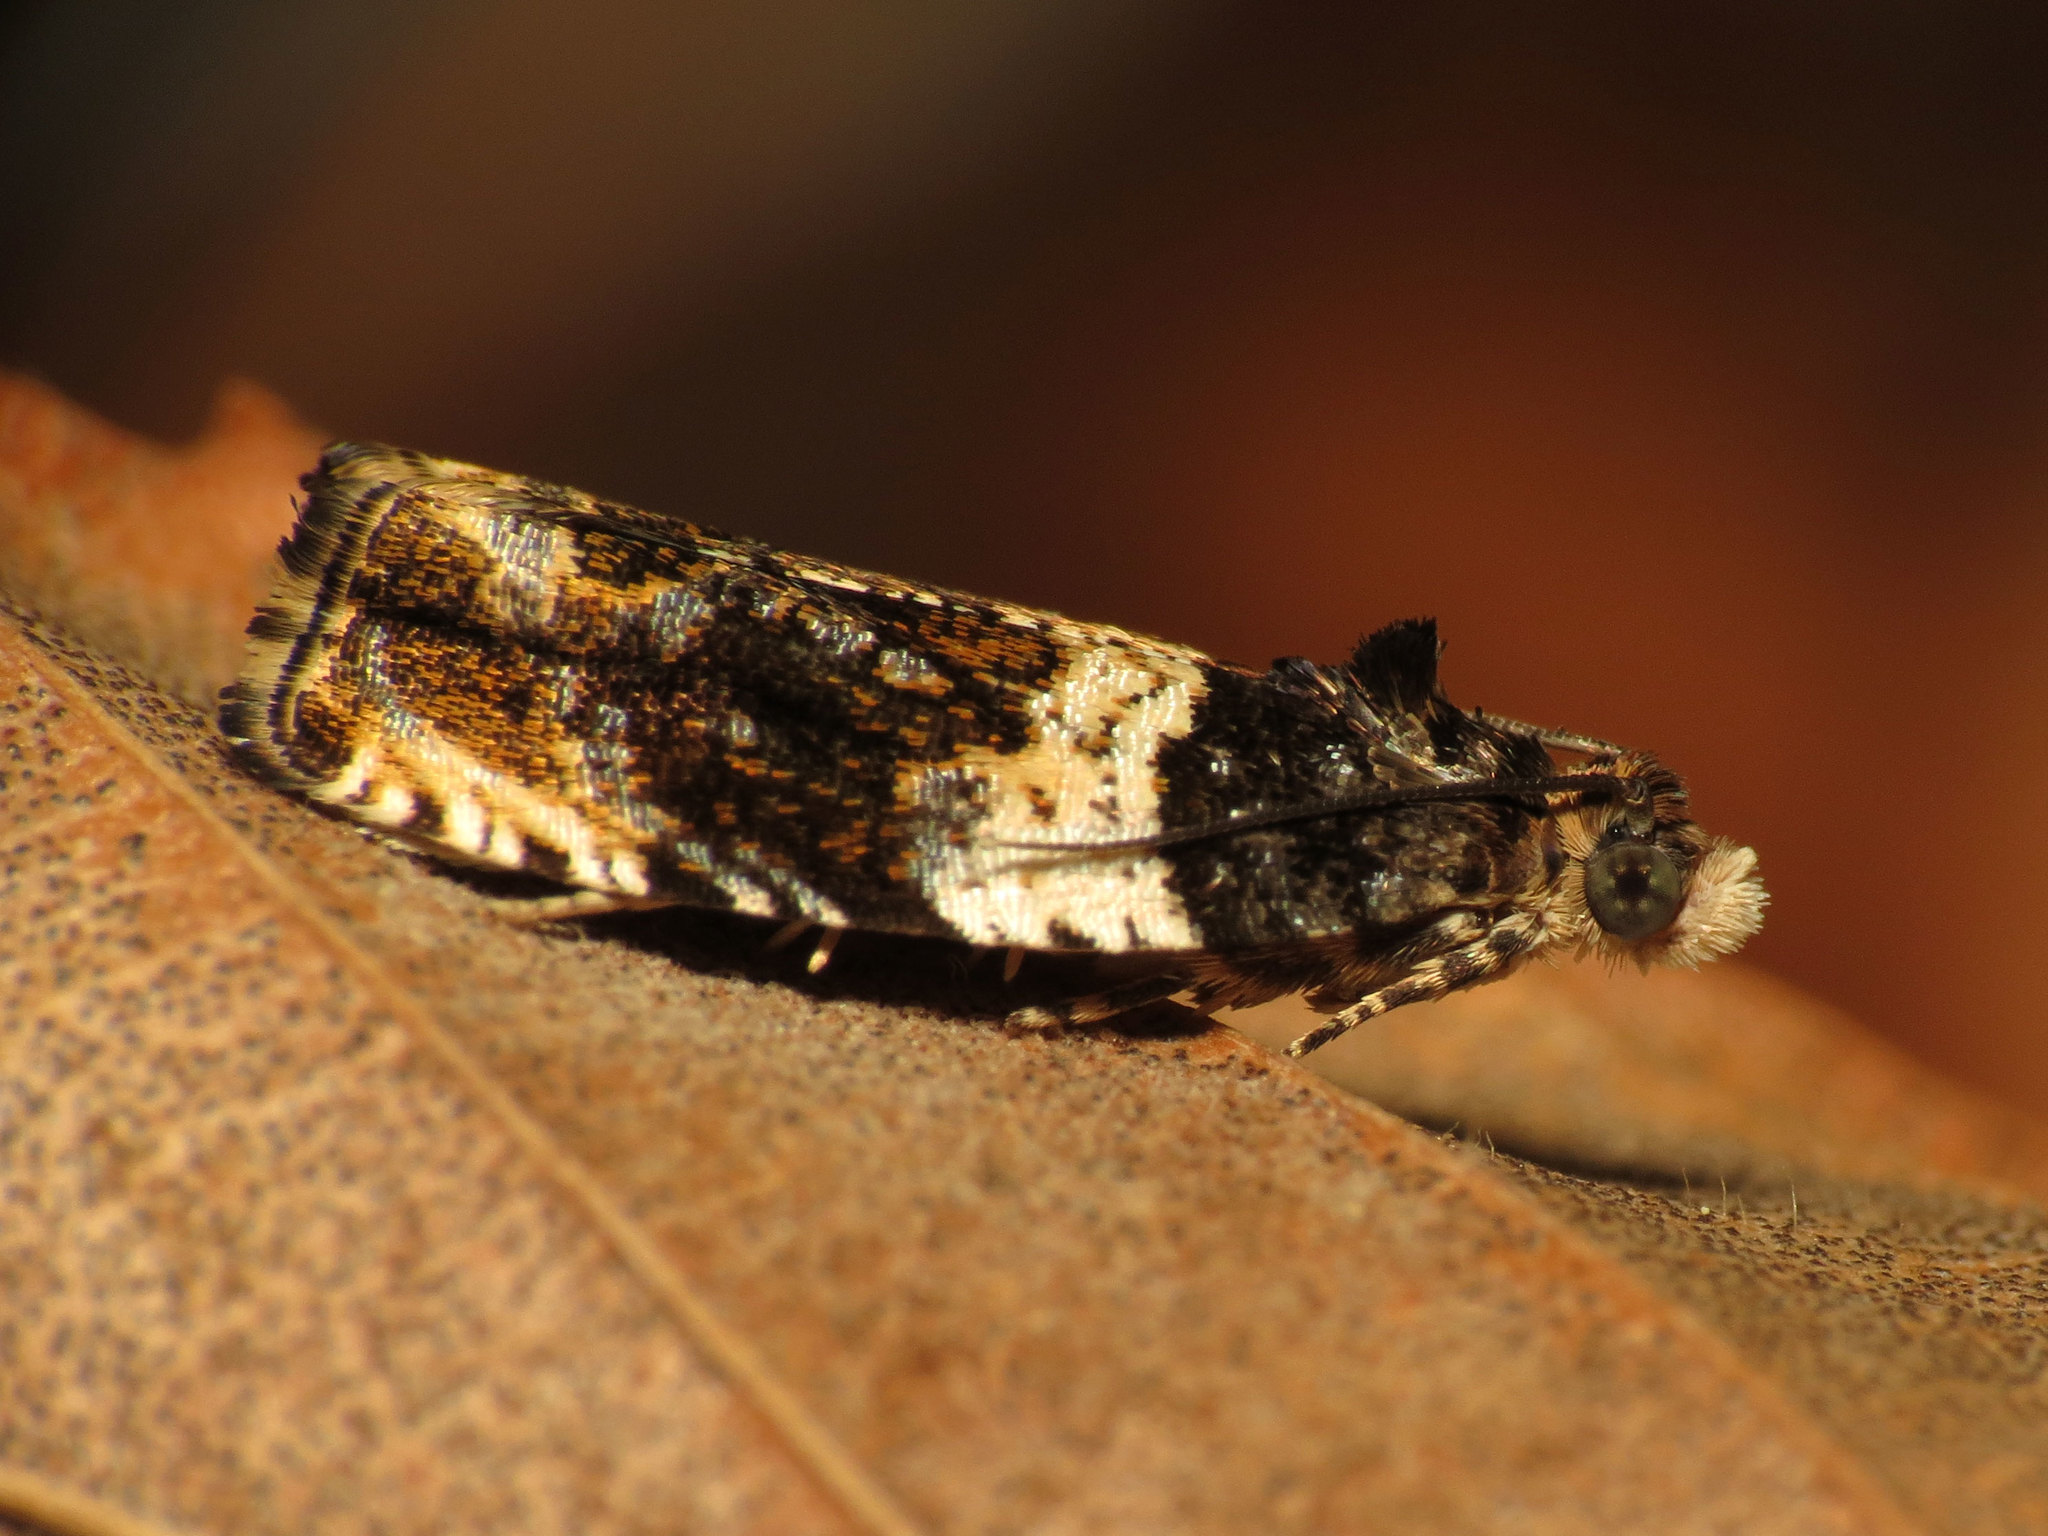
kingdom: Animalia
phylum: Arthropoda
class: Insecta
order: Lepidoptera
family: Tortricidae
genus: Olethreutes
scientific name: Olethreutes fasciatana
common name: Banded olethreutes moth
